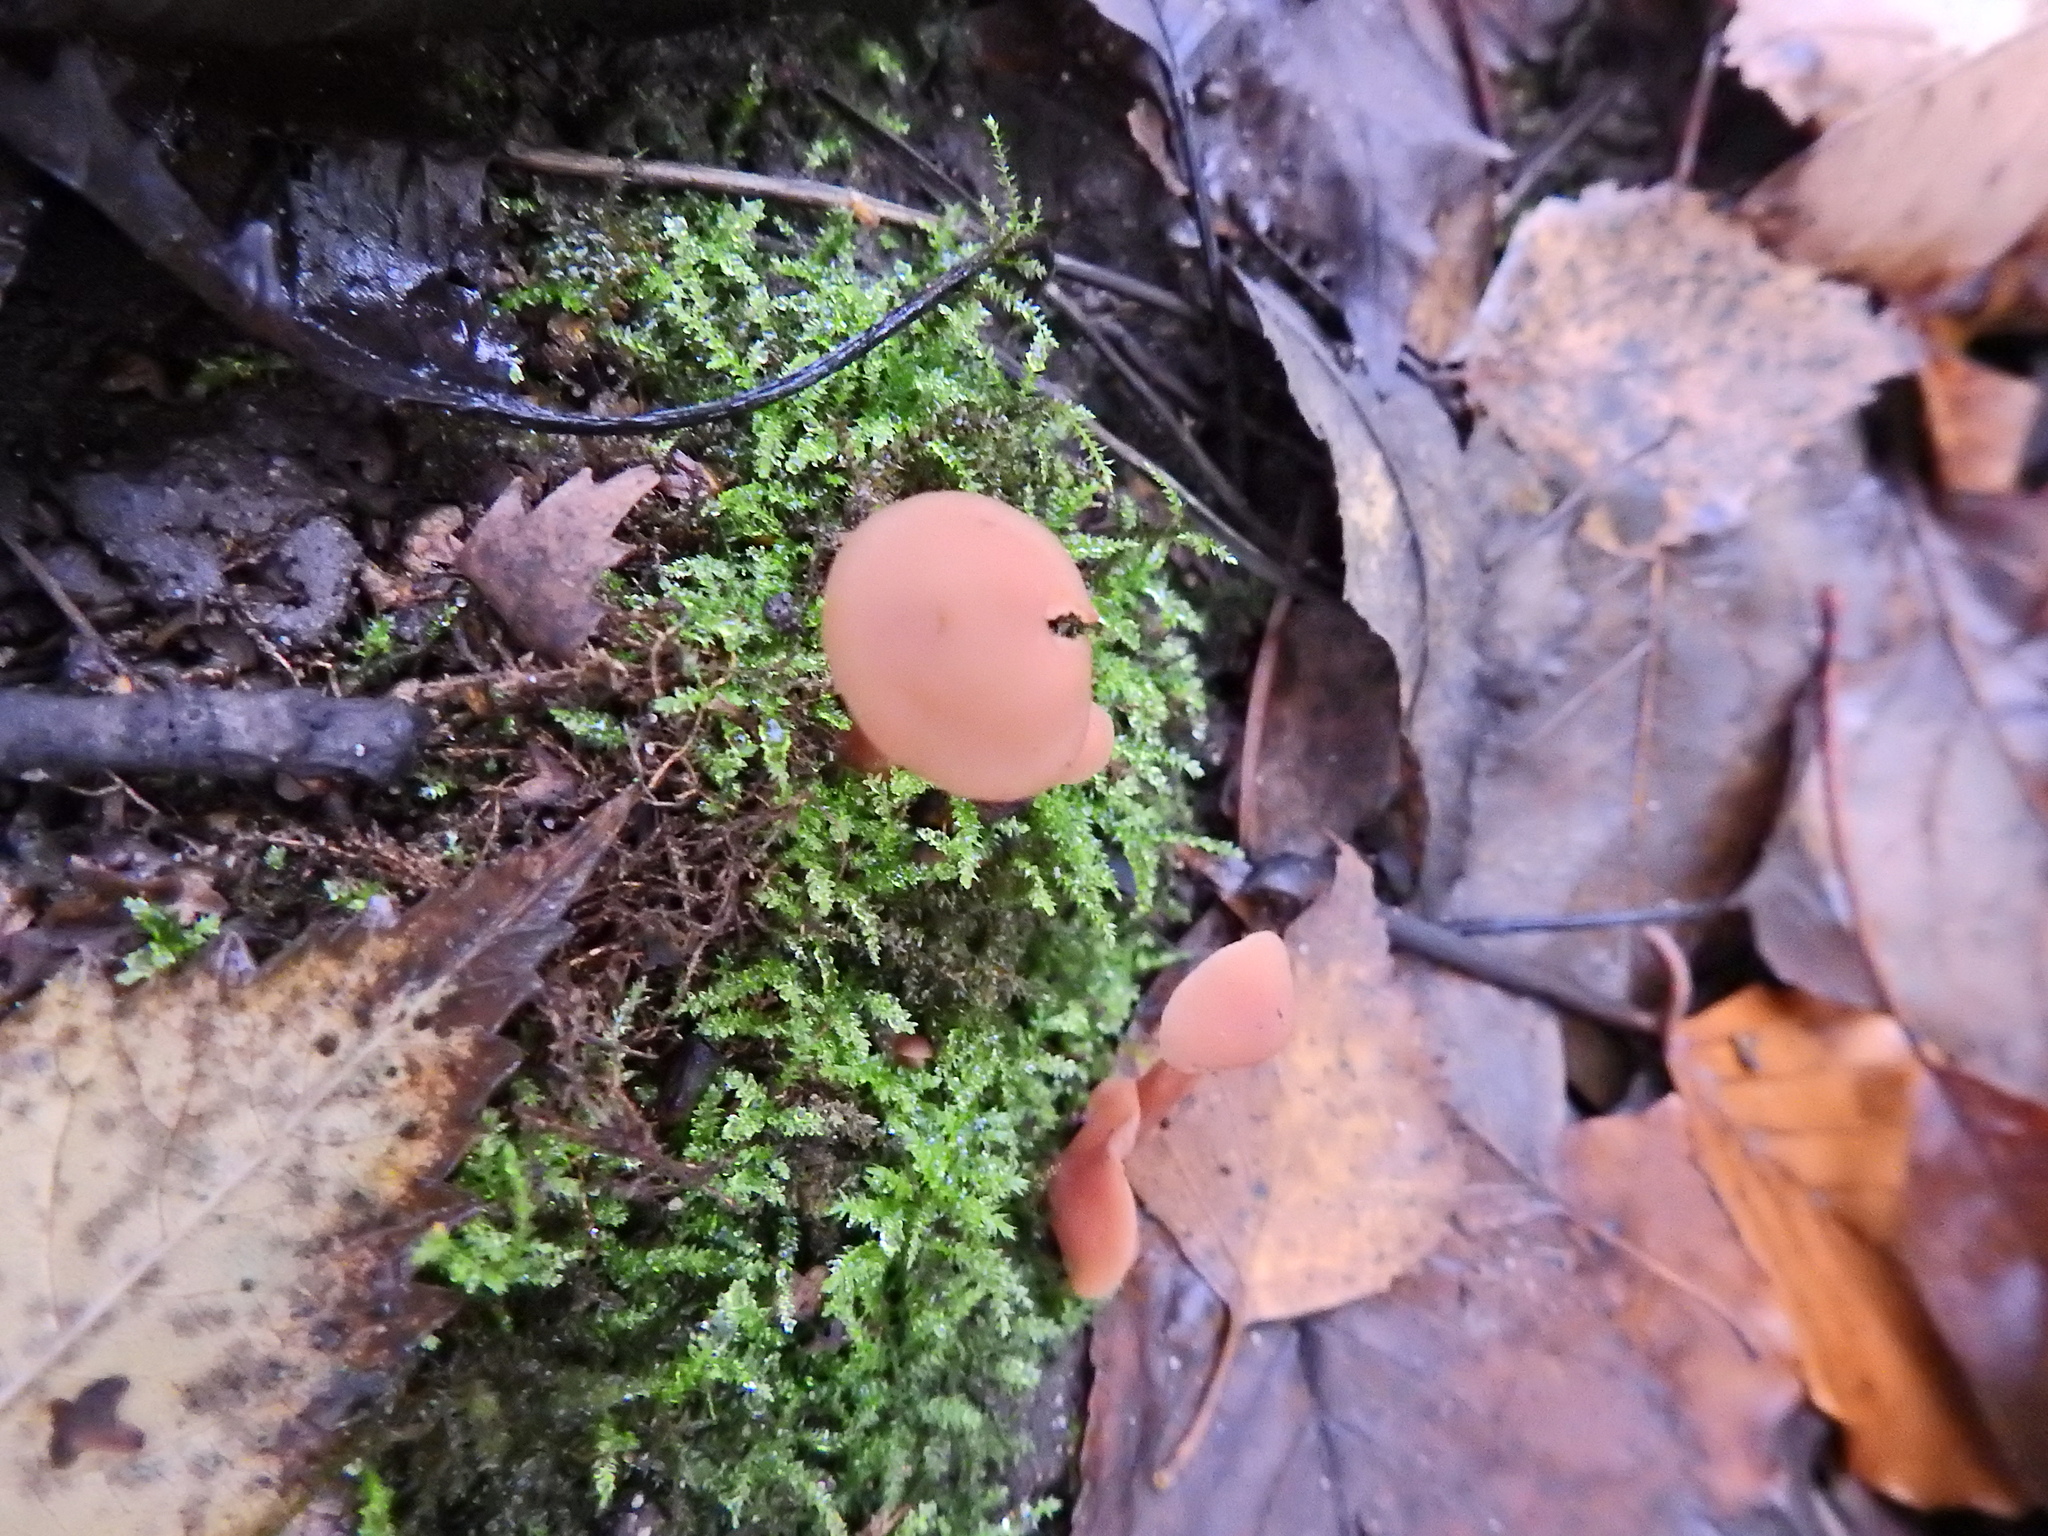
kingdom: Fungi
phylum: Basidiomycota
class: Agaricomycetes
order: Agaricales
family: Hydnangiaceae
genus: Laccaria
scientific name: Laccaria laccata
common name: Deceiver
